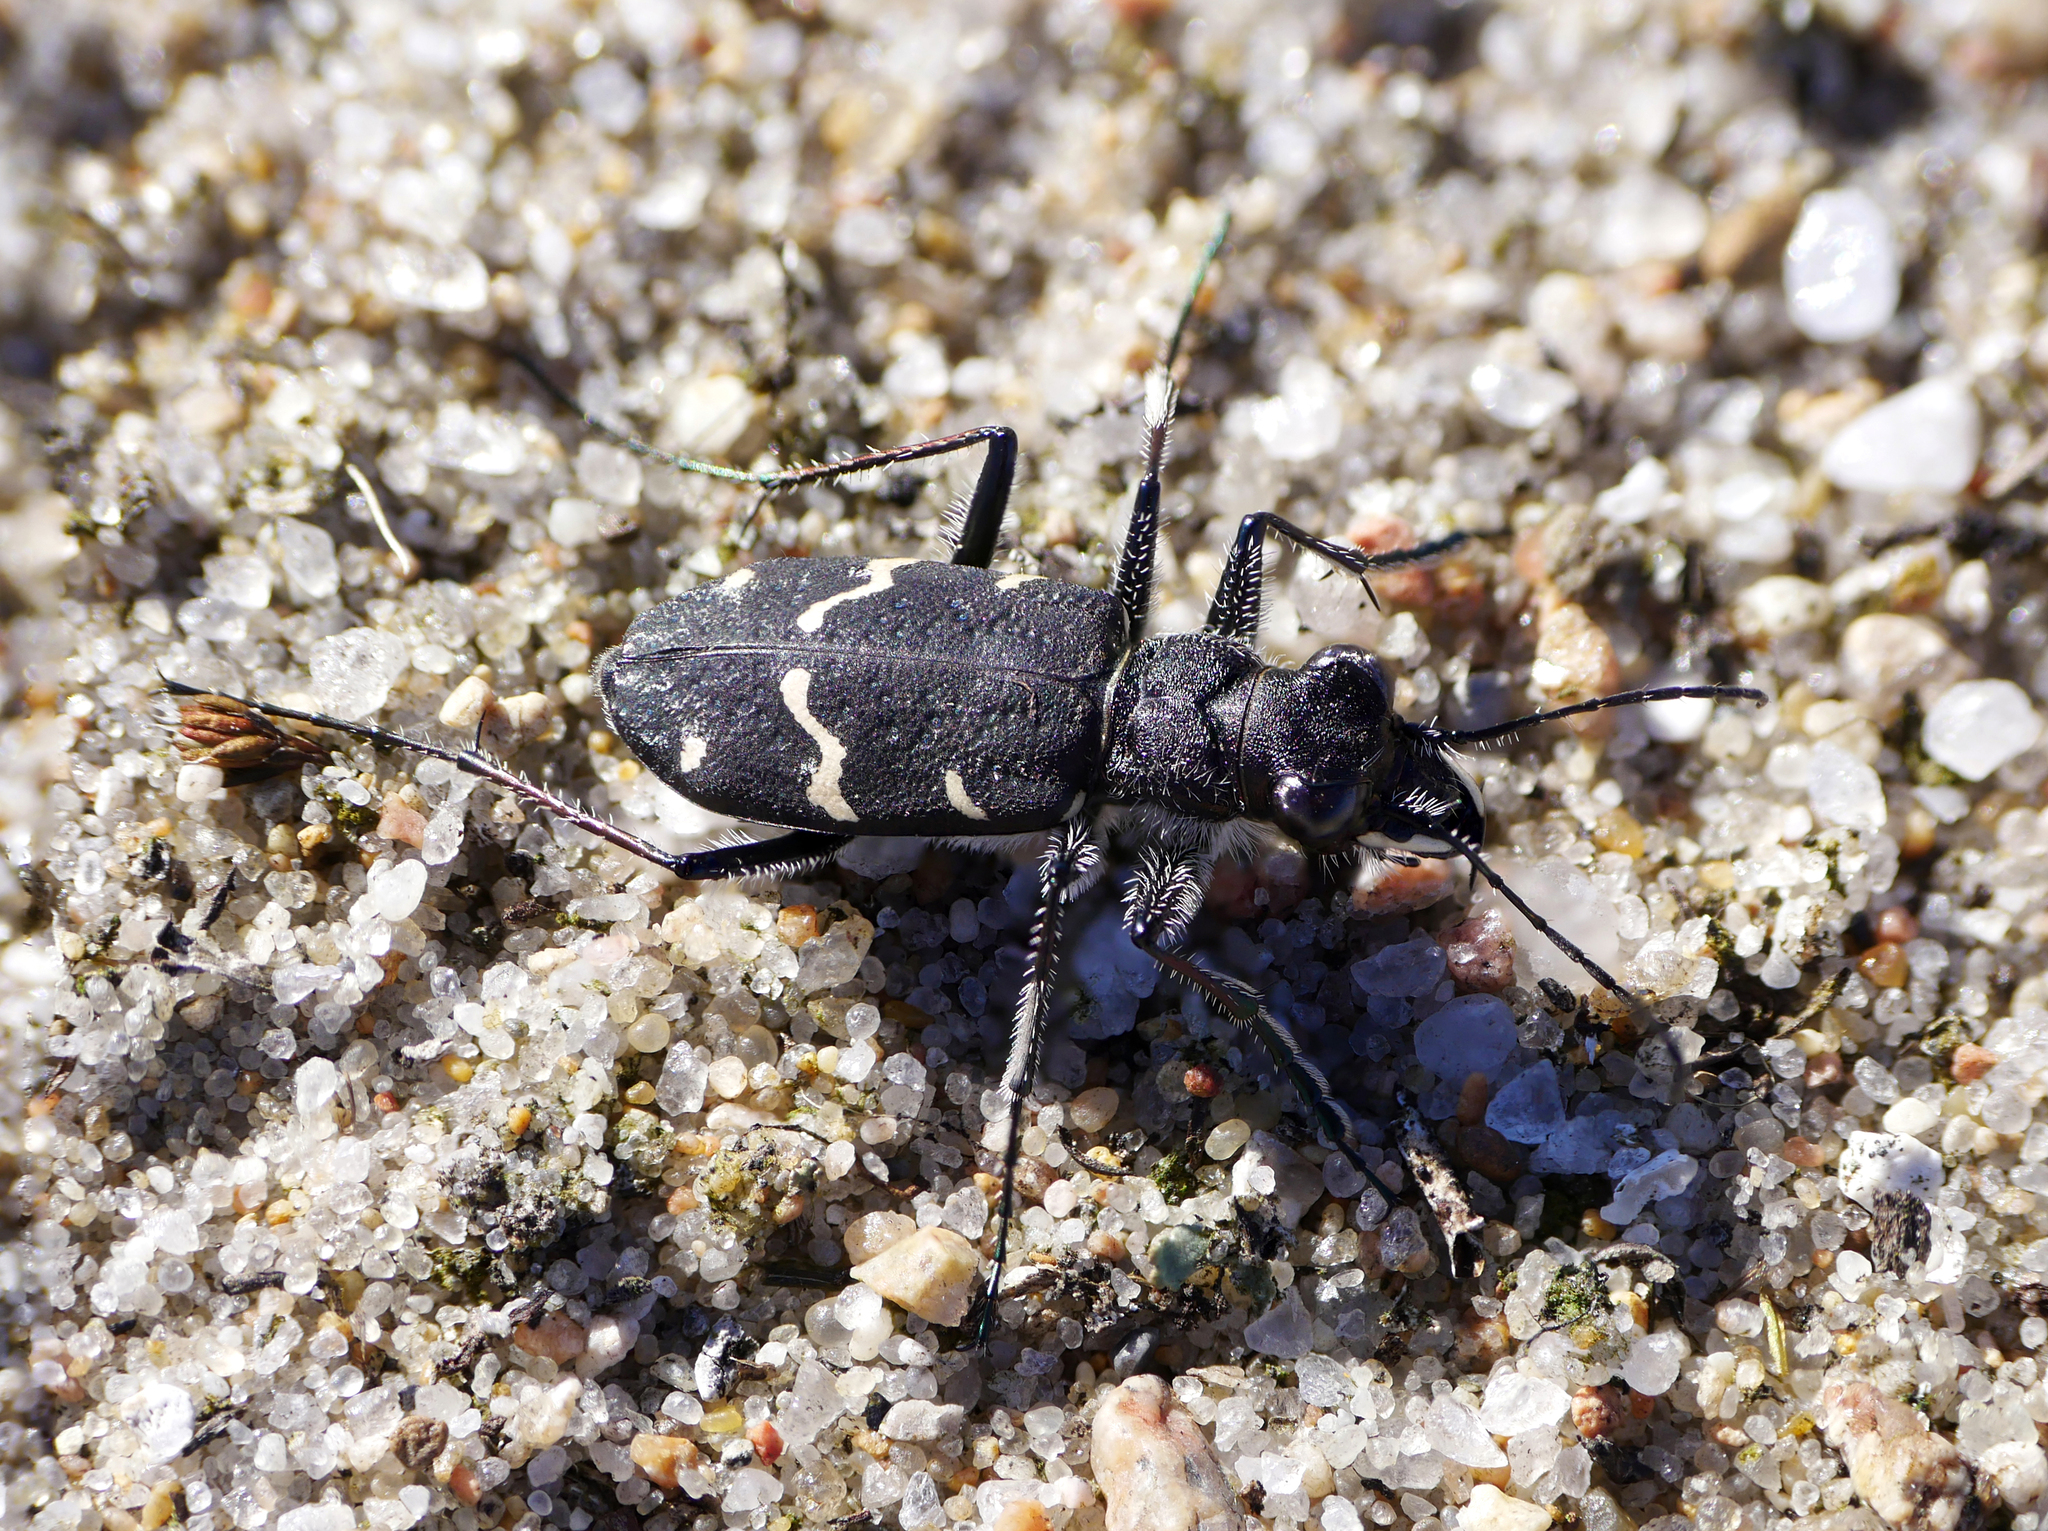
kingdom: Animalia
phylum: Arthropoda
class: Insecta
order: Coleoptera
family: Carabidae
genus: Cicindela
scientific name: Cicindela sylvatica
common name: Heath tiger beetle
